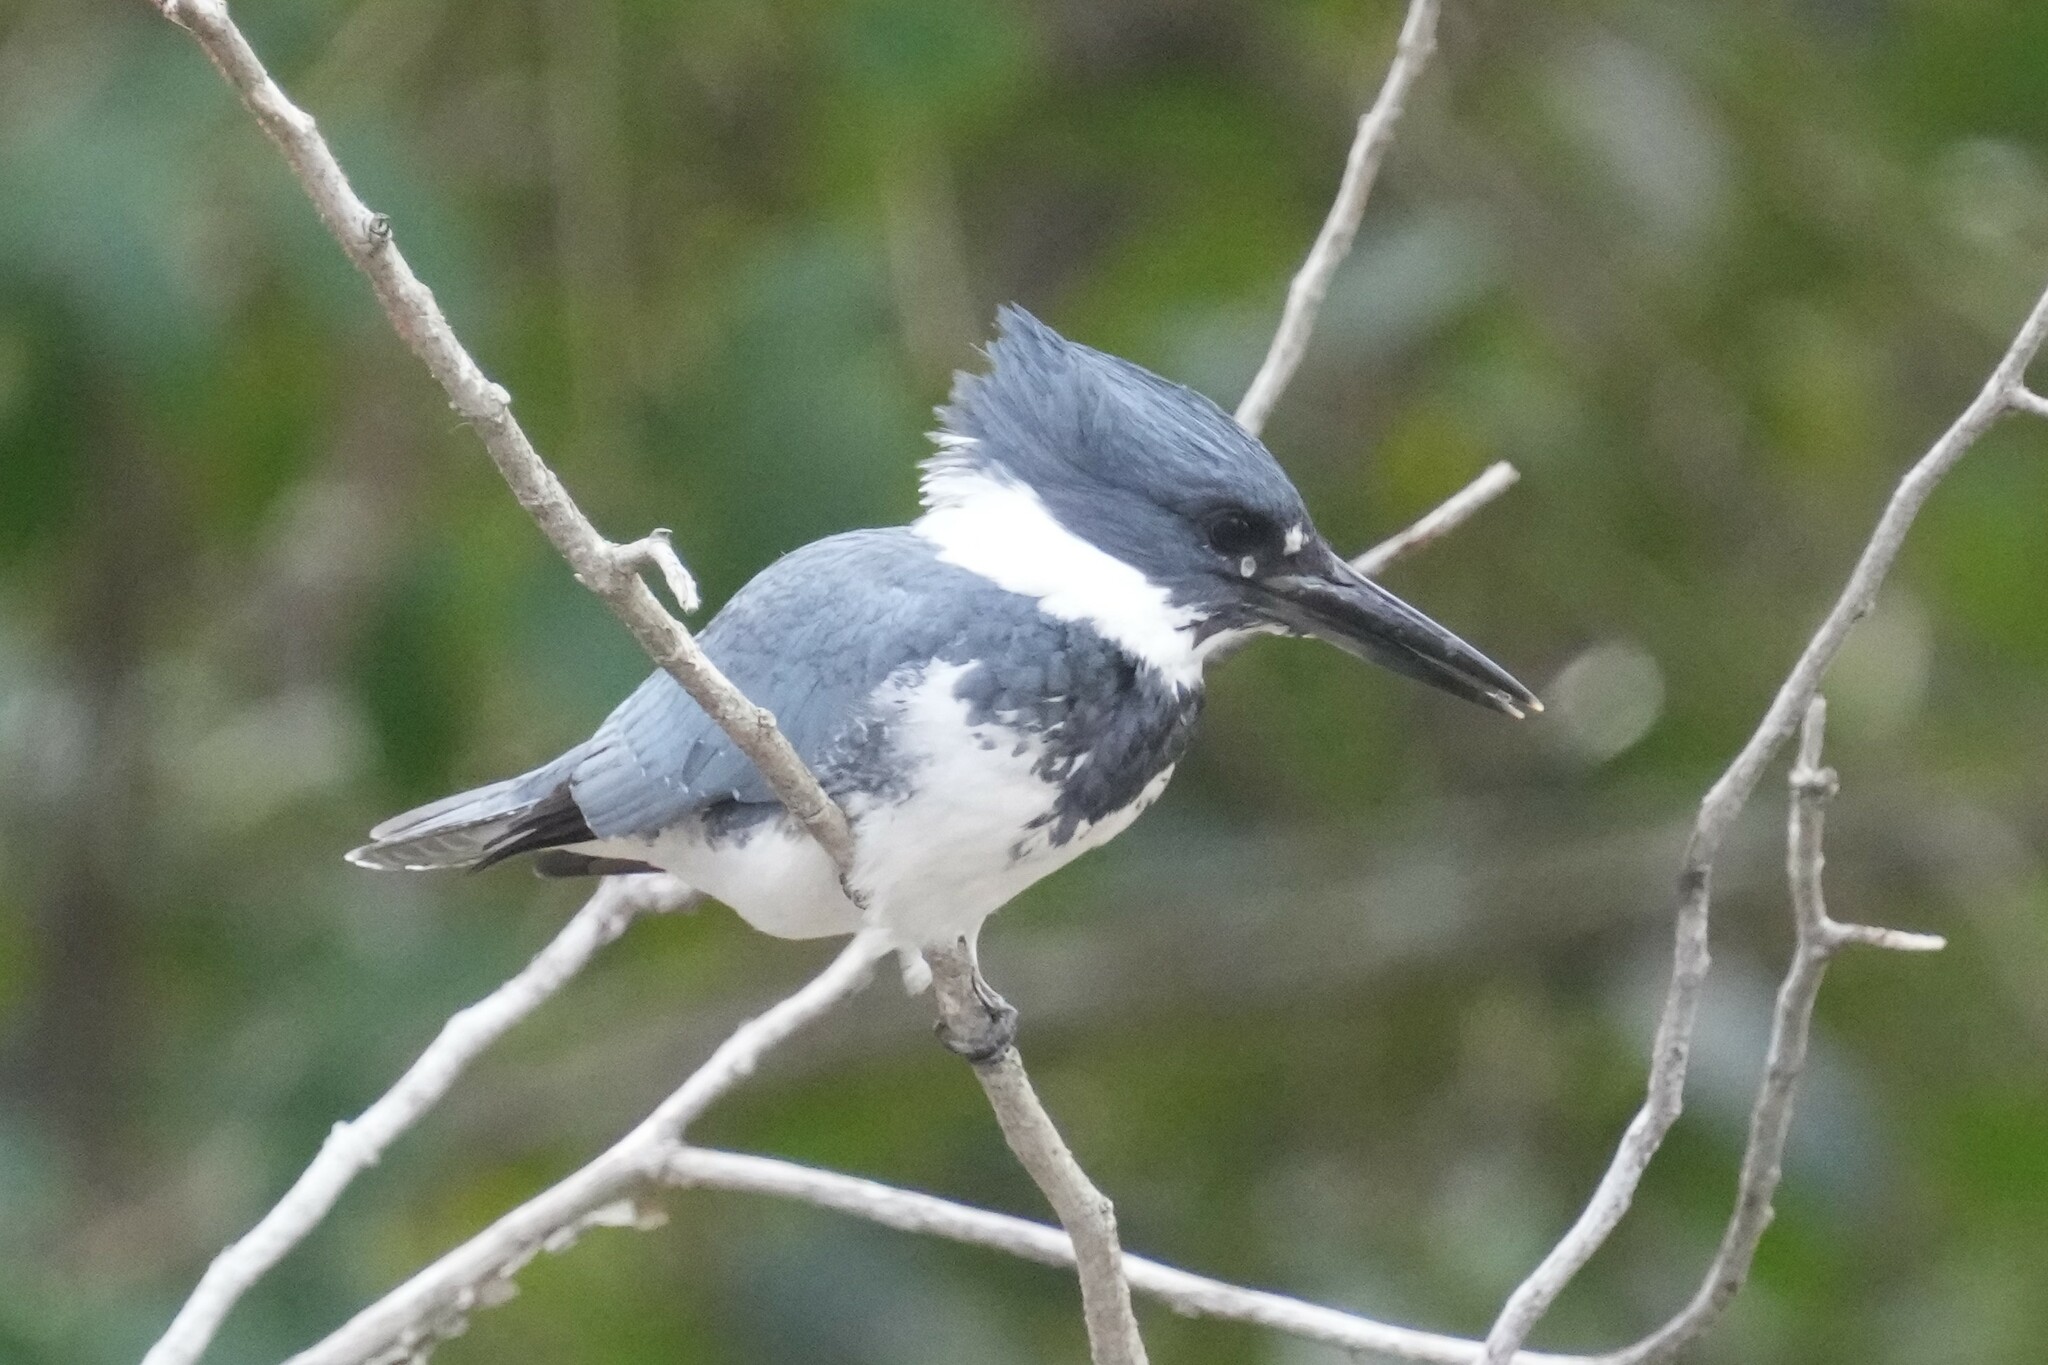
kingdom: Animalia
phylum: Chordata
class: Aves
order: Coraciiformes
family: Alcedinidae
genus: Megaceryle
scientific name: Megaceryle alcyon
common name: Belted kingfisher
